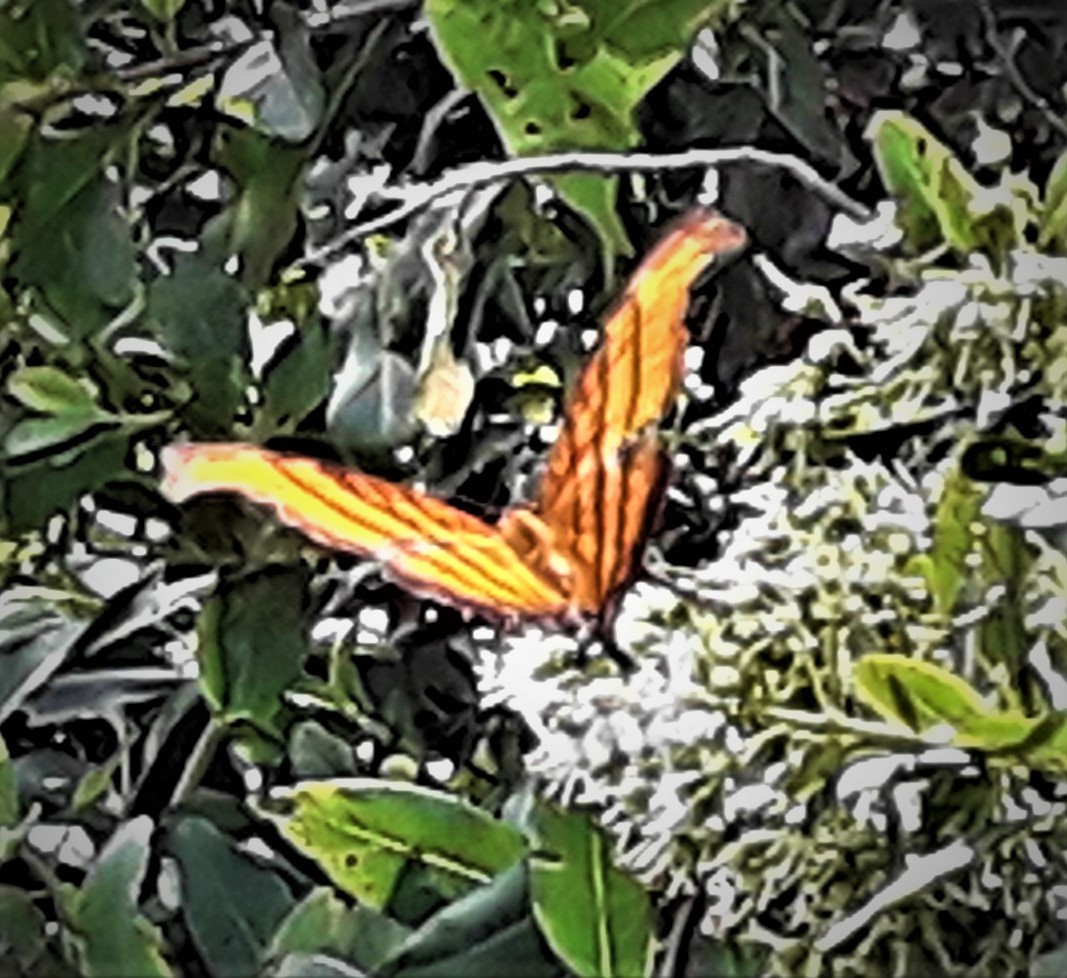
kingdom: Animalia
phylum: Arthropoda
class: Insecta
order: Lepidoptera
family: Nymphalidae
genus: Marpesia
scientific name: Marpesia petreus
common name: Red dagger wing
